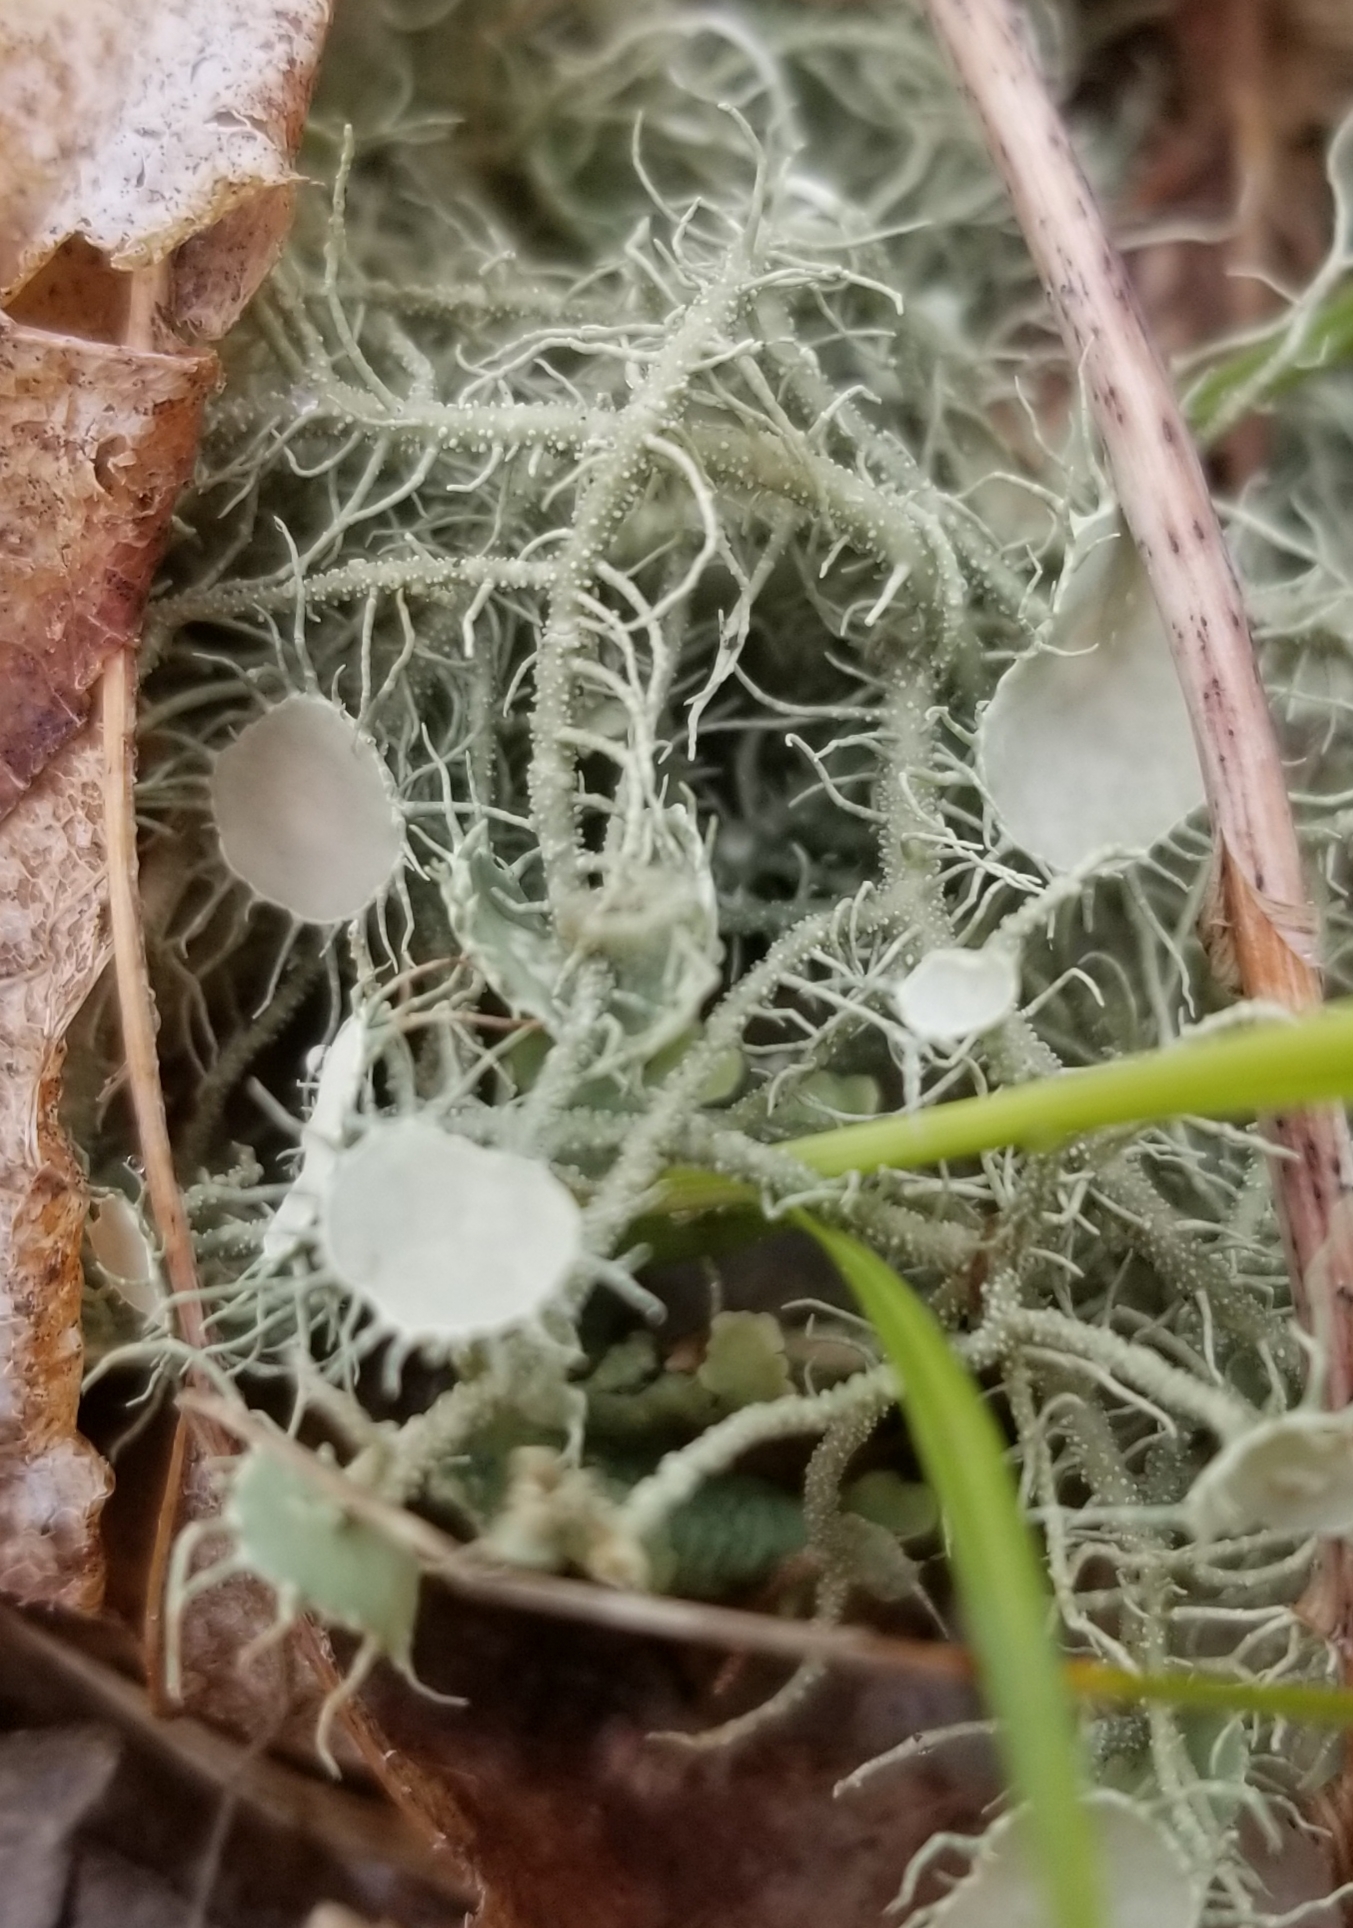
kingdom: Fungi
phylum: Ascomycota
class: Lecanoromycetes
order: Lecanorales
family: Parmeliaceae
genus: Usnea
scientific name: Usnea strigosa
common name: Bushy beard lichen
